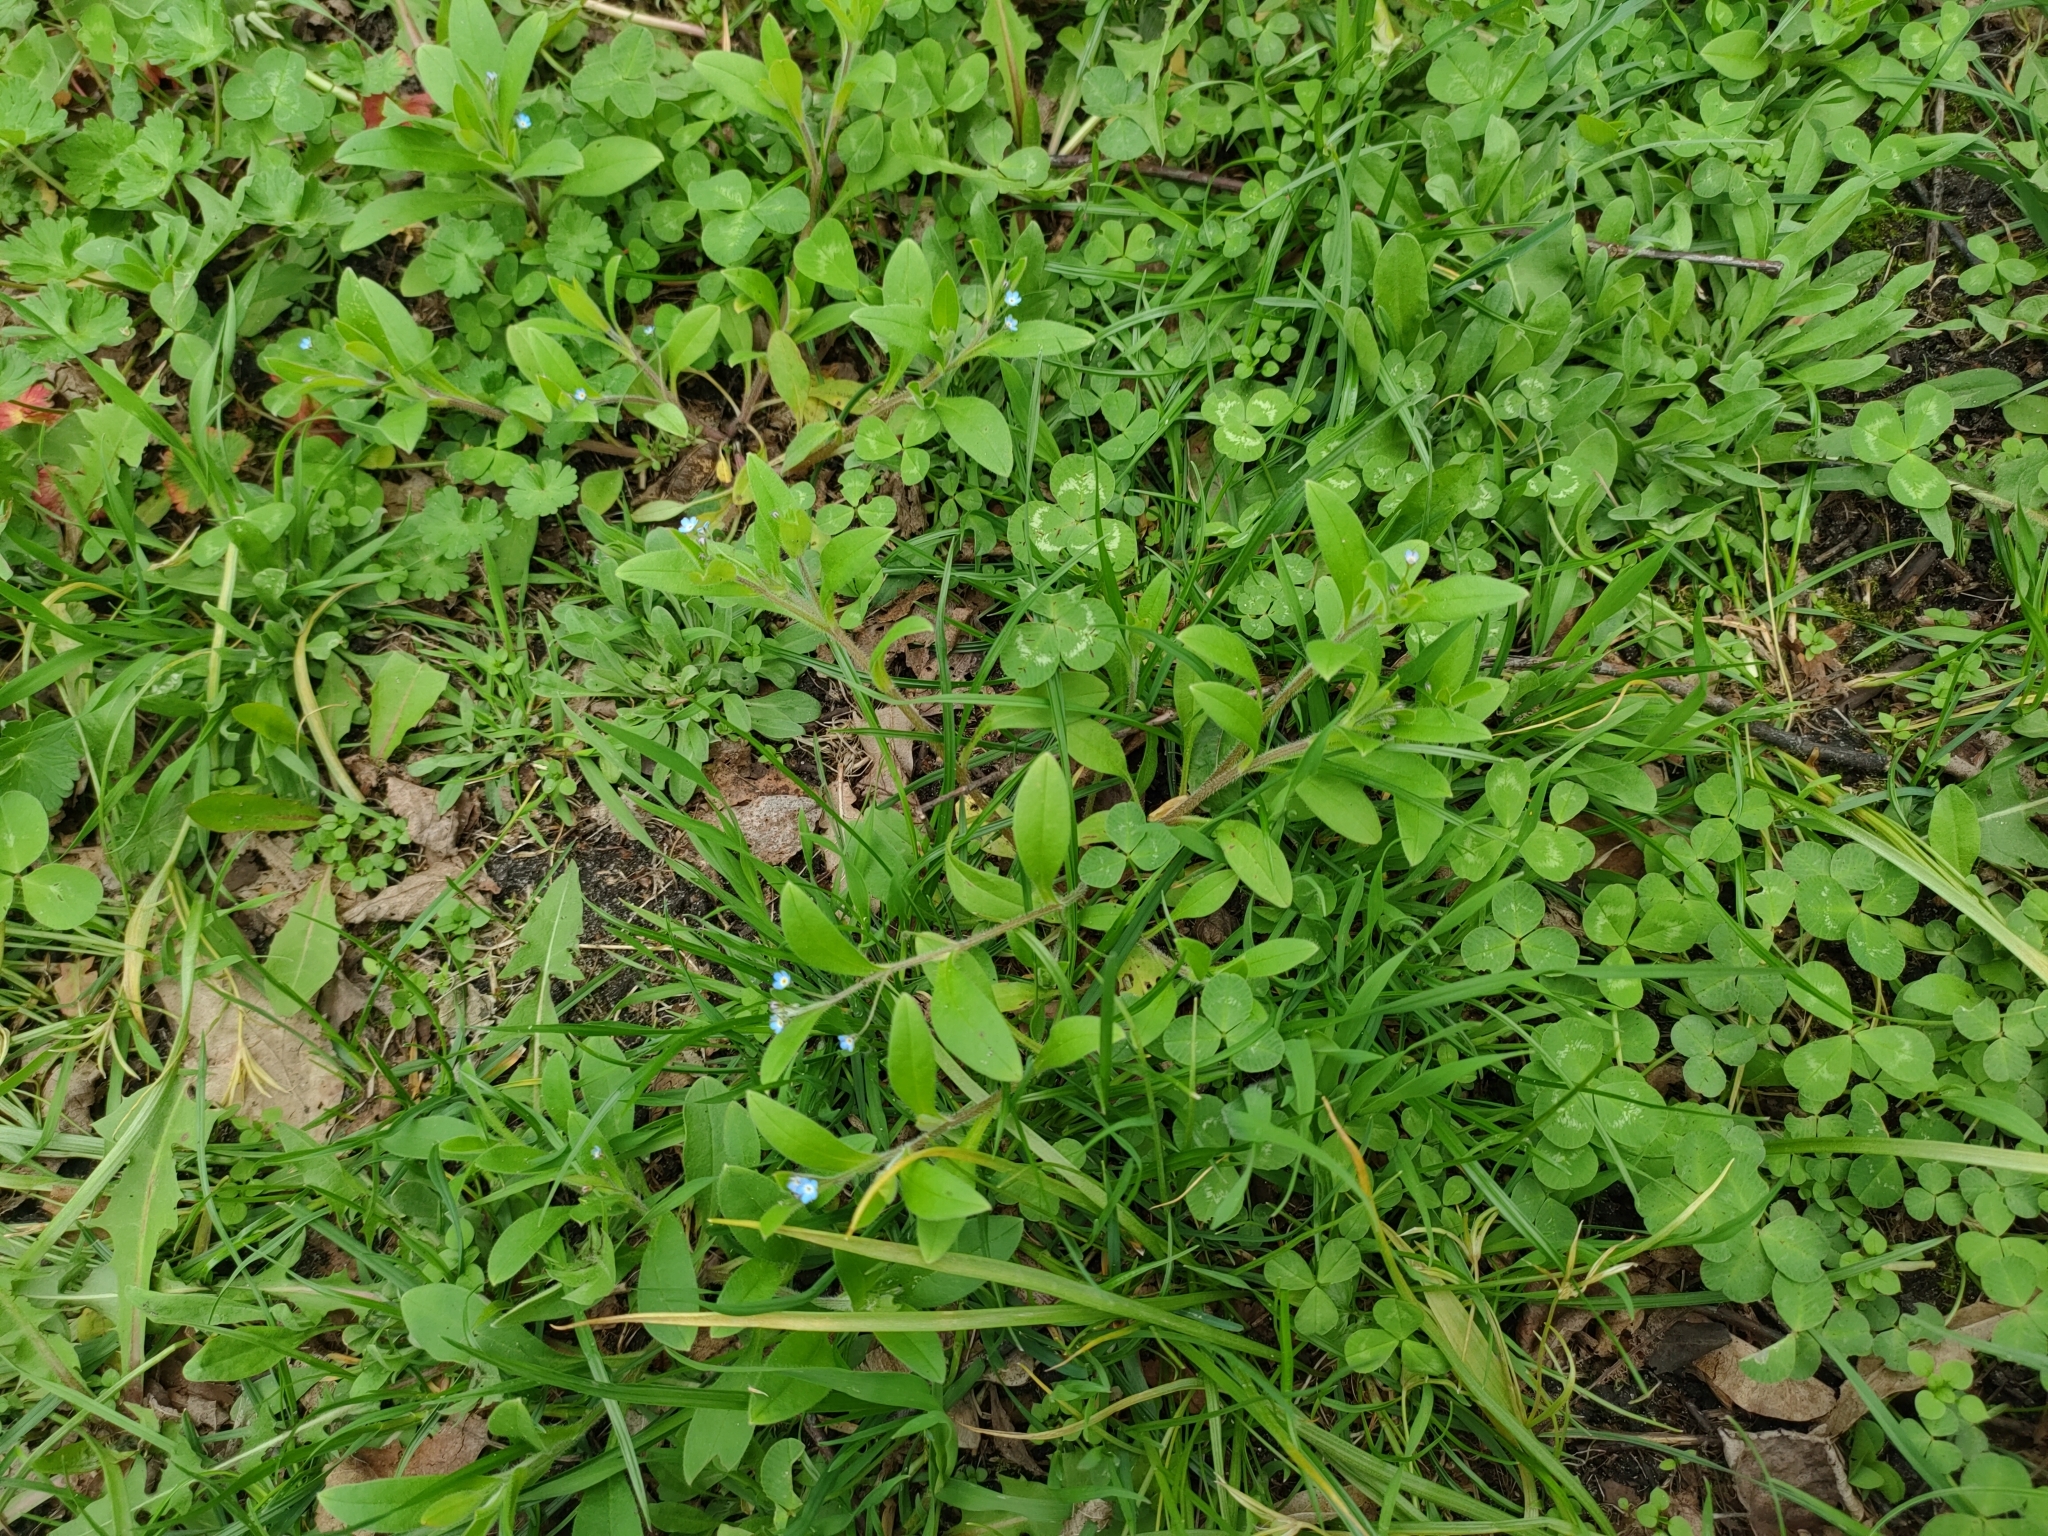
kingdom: Plantae
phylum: Tracheophyta
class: Magnoliopsida
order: Boraginales
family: Boraginaceae
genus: Myosotis
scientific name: Myosotis sparsiflora
